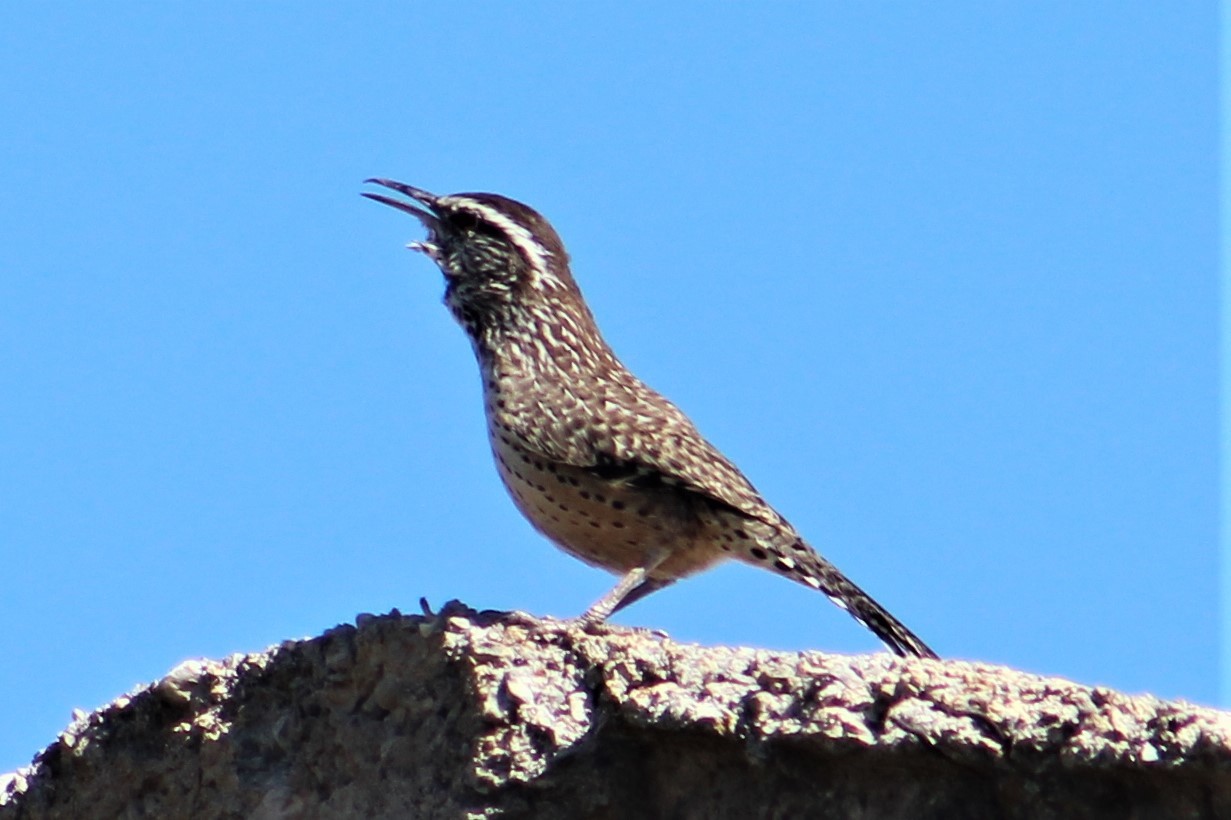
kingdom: Animalia
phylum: Chordata
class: Aves
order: Passeriformes
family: Troglodytidae
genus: Campylorhynchus
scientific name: Campylorhynchus brunneicapillus
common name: Cactus wren
